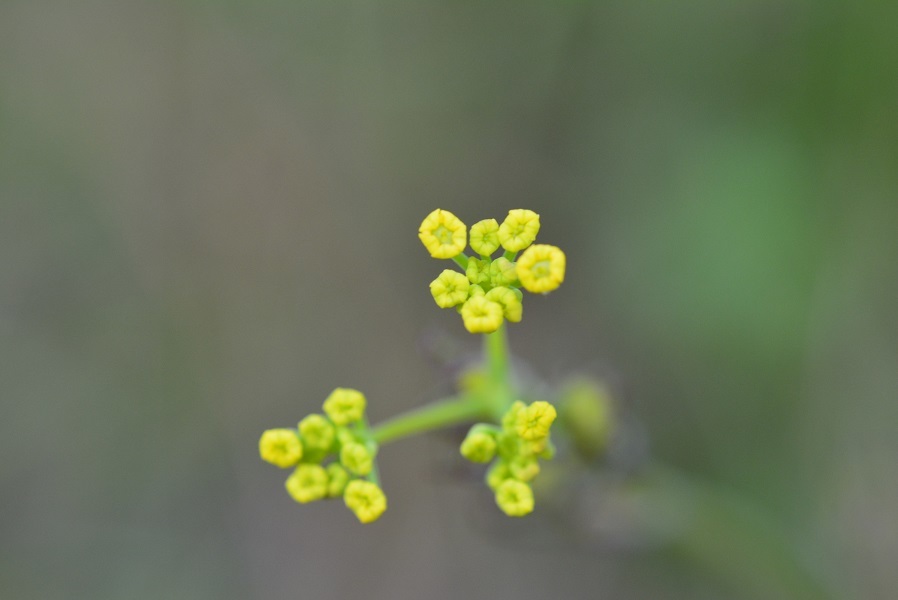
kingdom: Plantae
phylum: Tracheophyta
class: Magnoliopsida
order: Apiales
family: Apiaceae
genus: Donnellsmithia
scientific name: Donnellsmithia juncea
